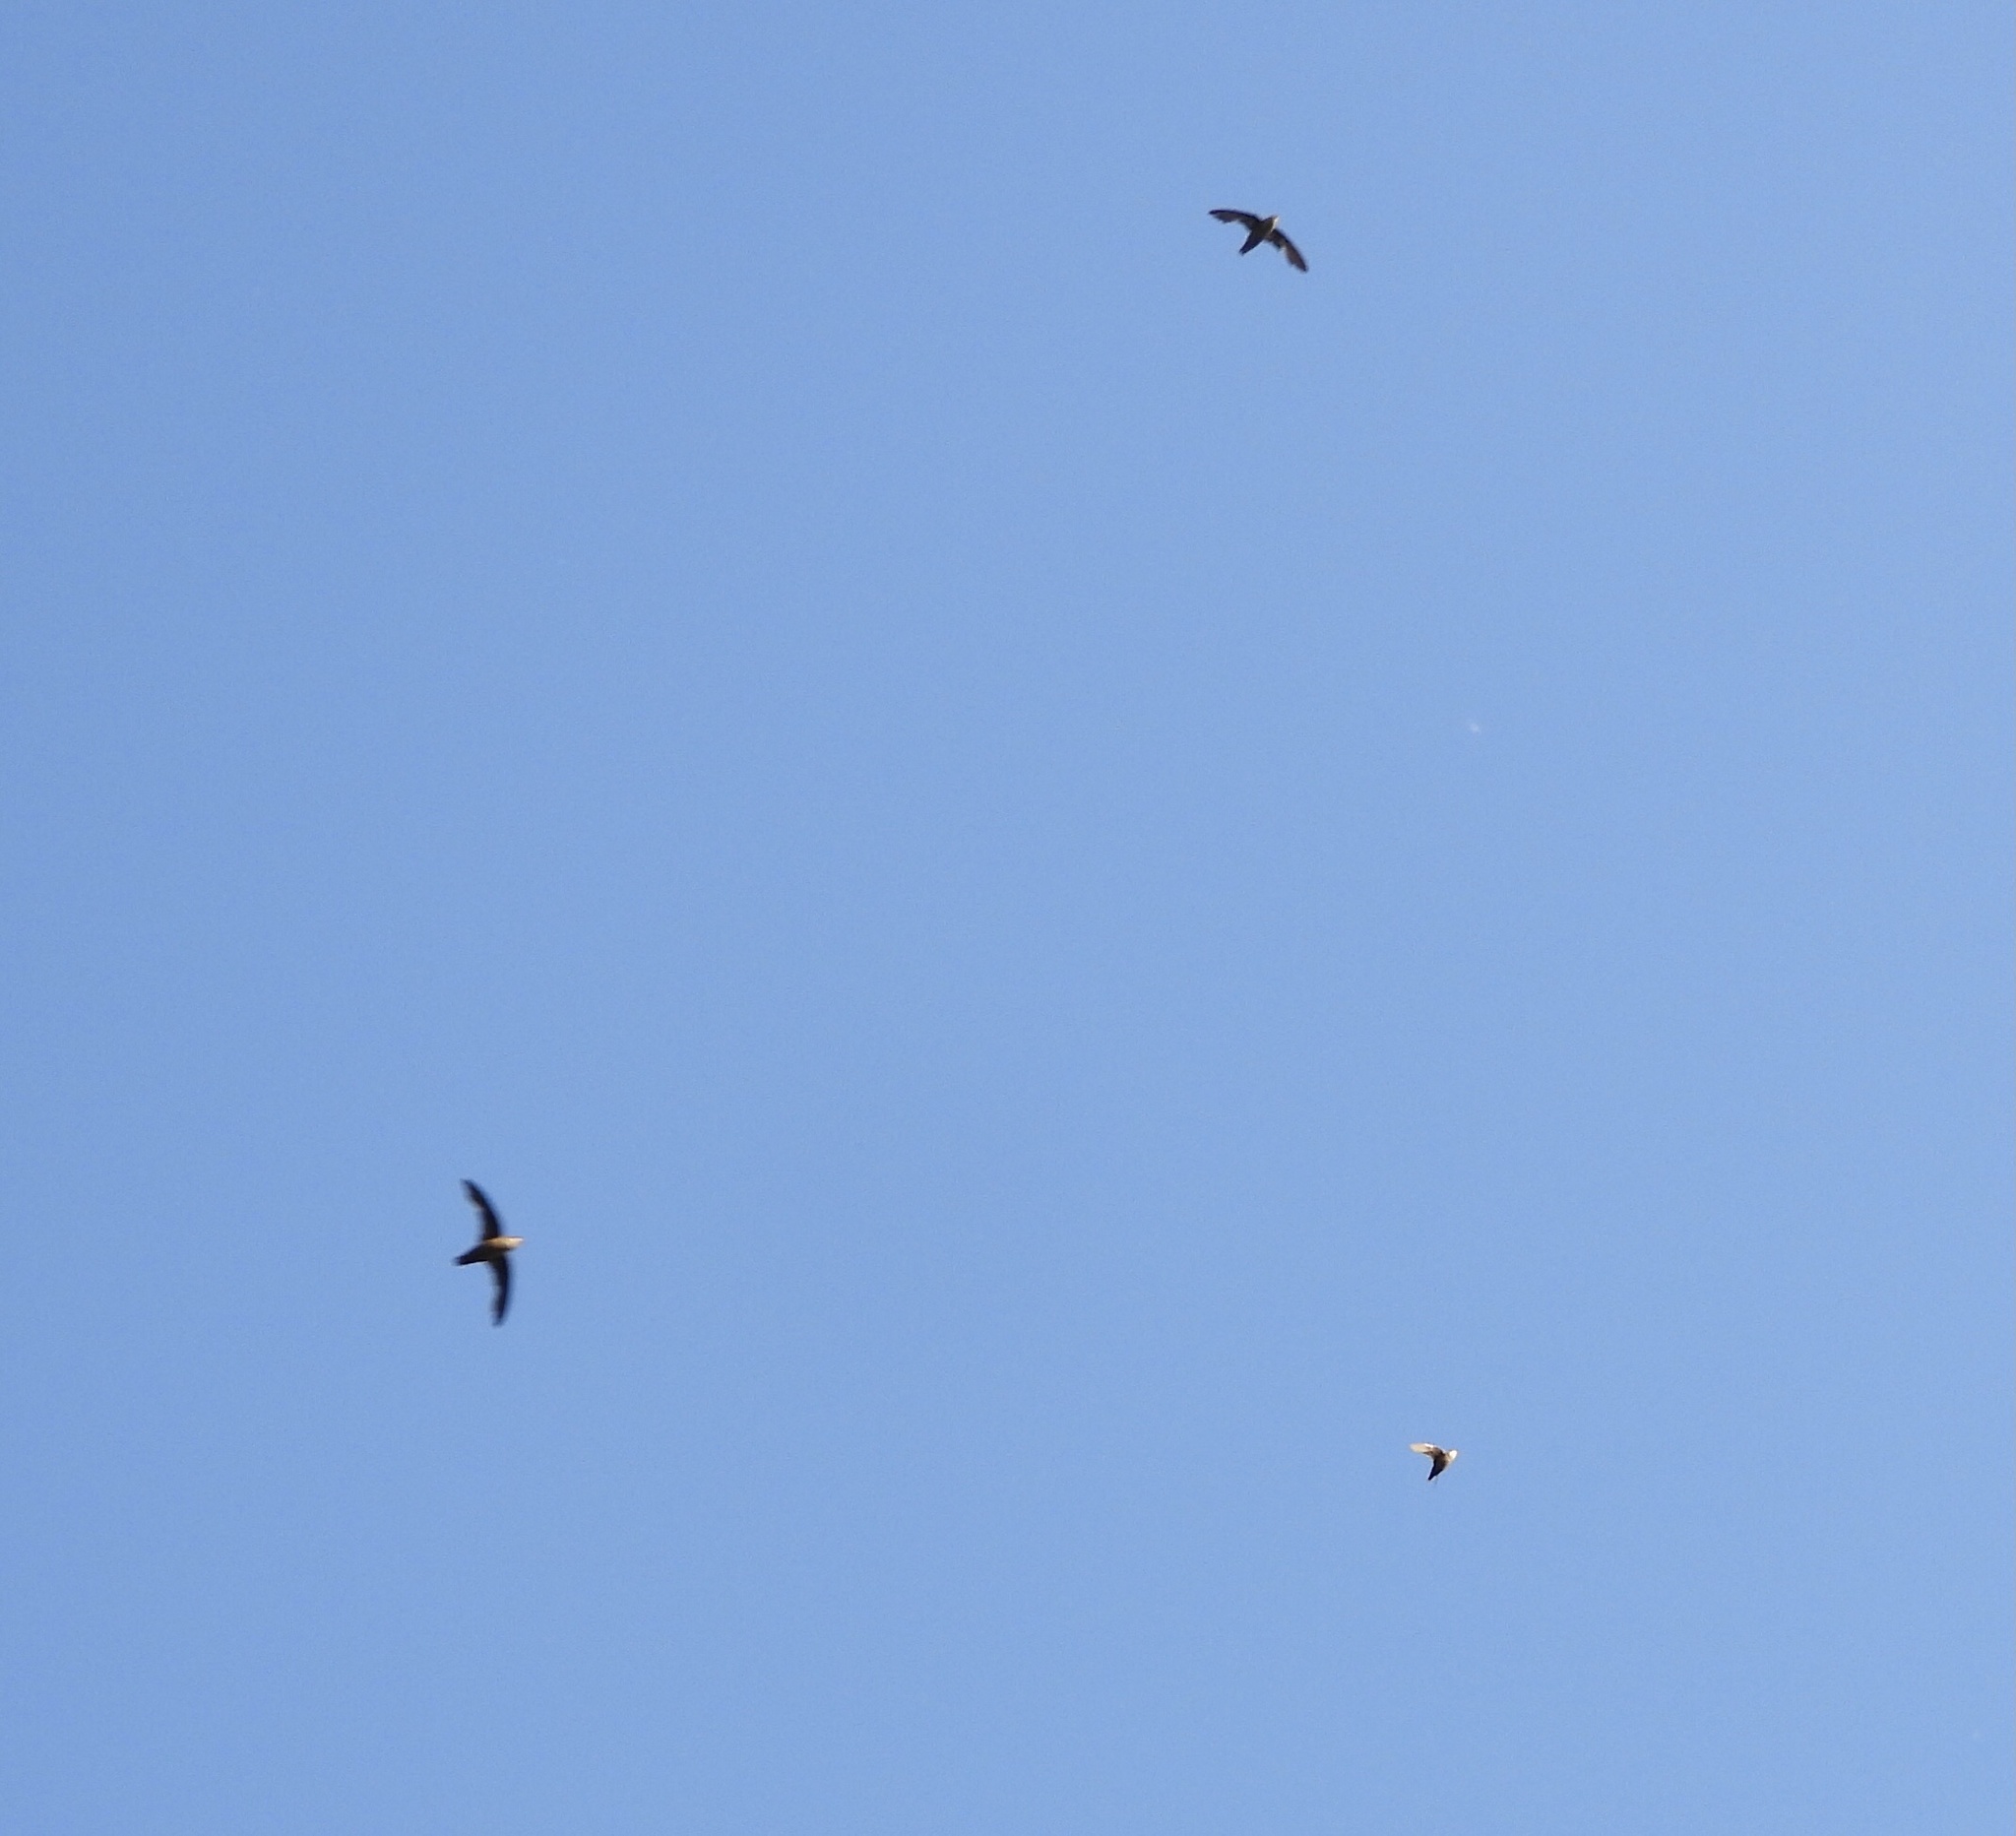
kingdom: Animalia
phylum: Chordata
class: Aves
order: Apodiformes
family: Apodidae
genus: Chaetura
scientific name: Chaetura vauxi
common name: Vaux's swift
